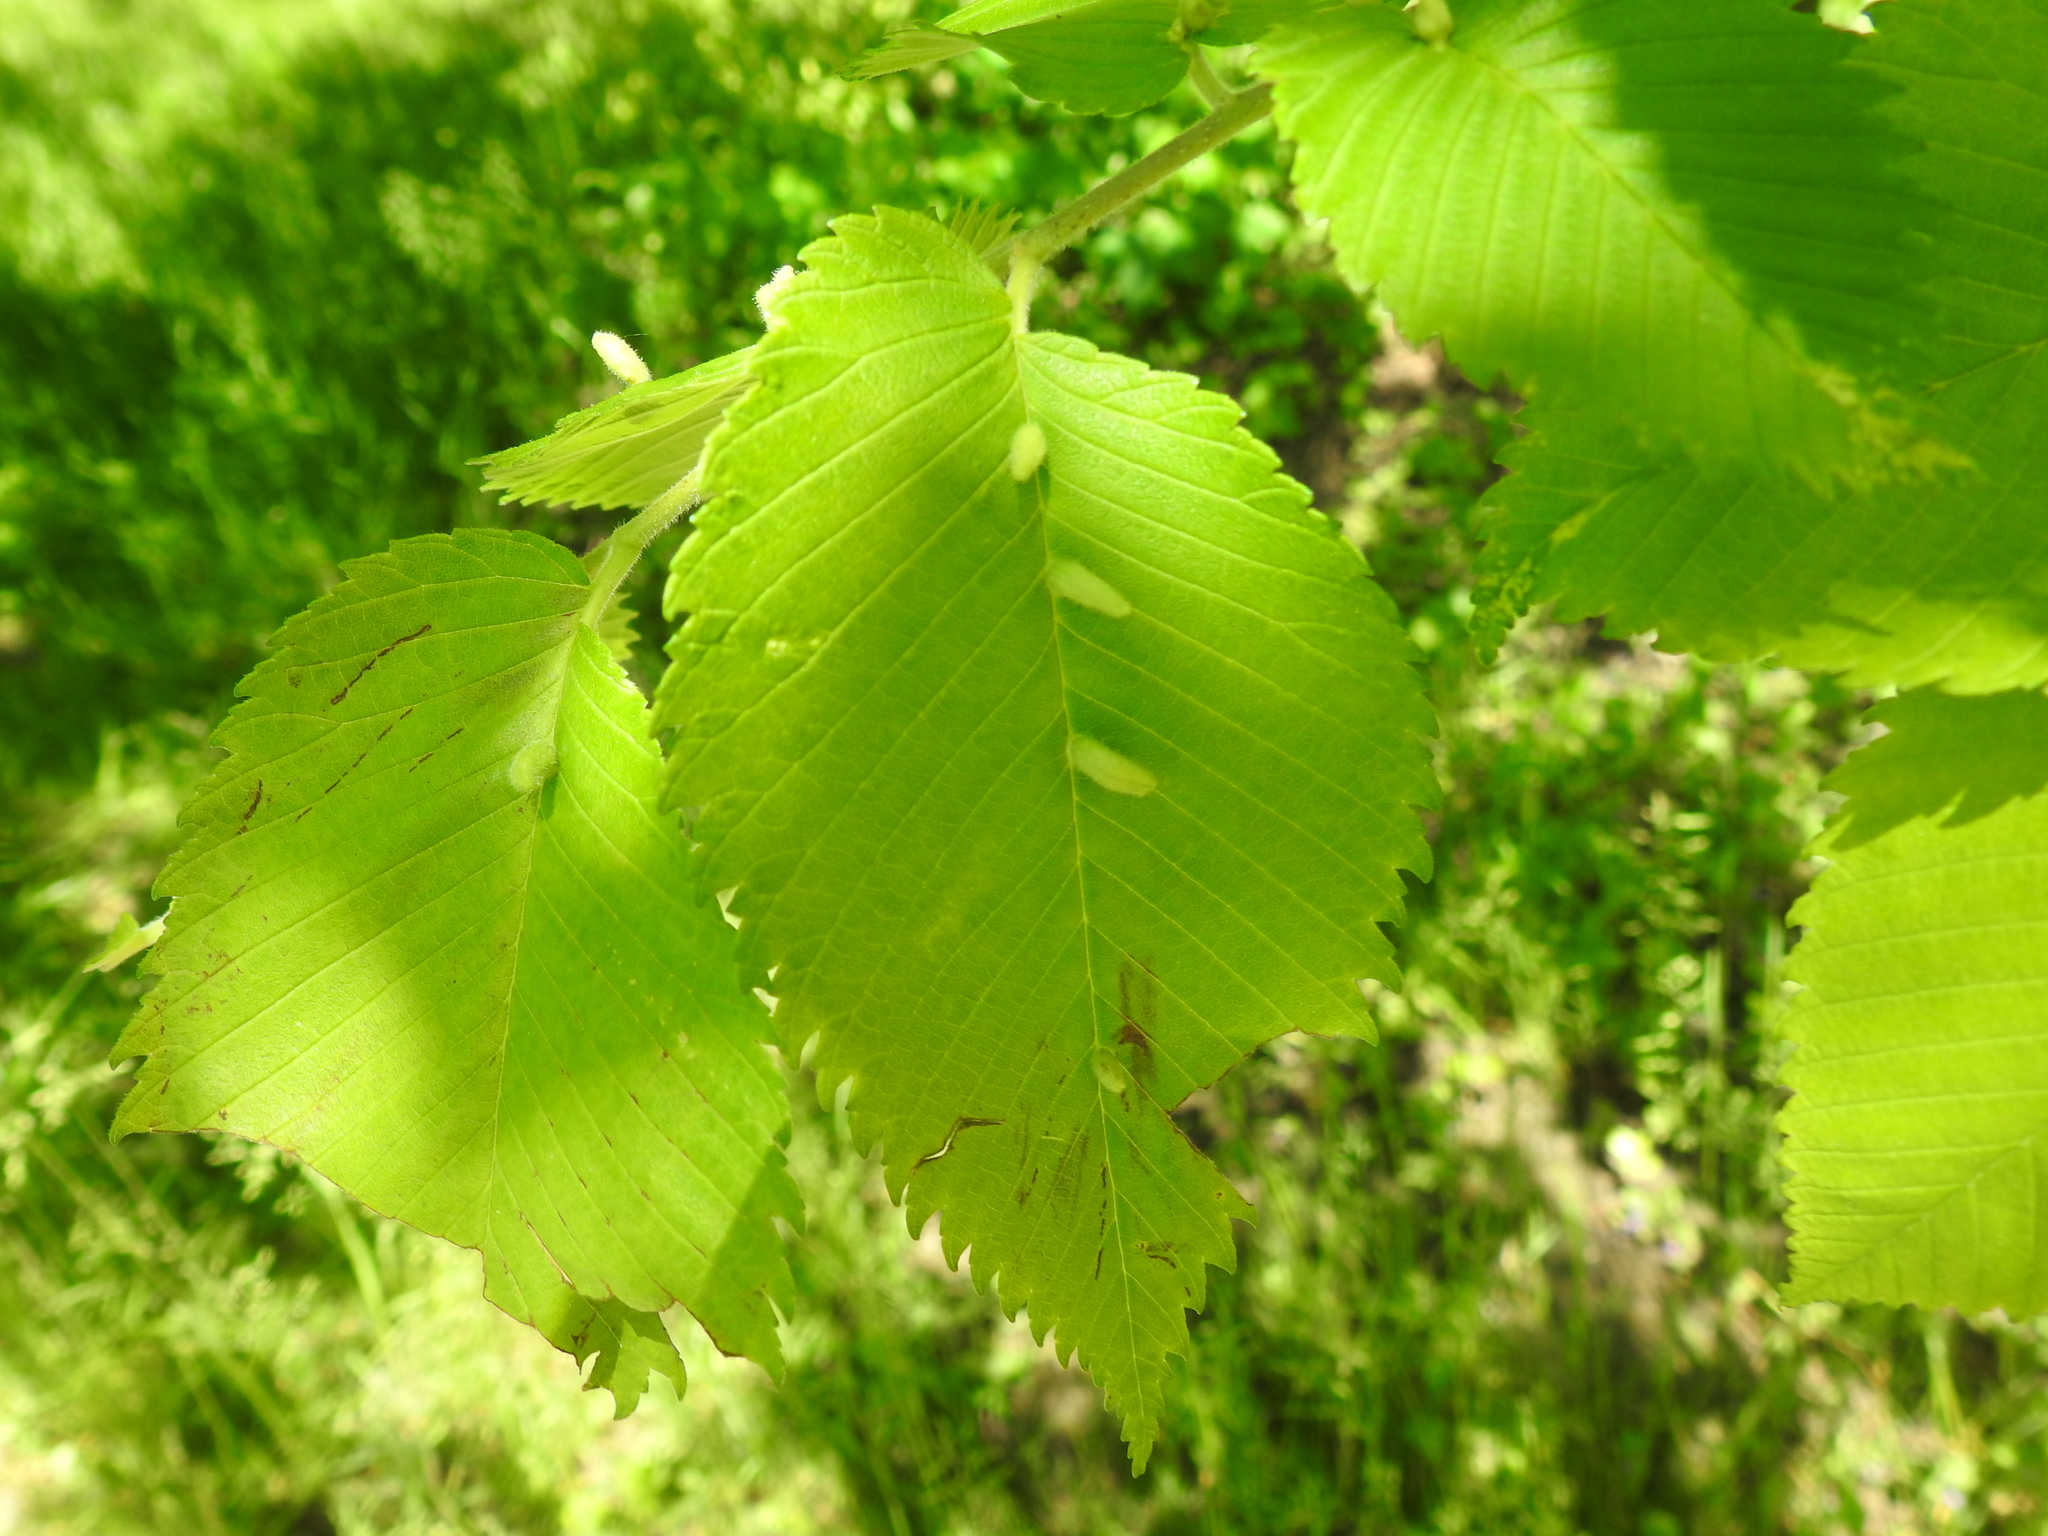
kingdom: Animalia
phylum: Arthropoda
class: Arachnida
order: Trombidiformes
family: Eriophyidae
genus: Aceria
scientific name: Aceria
